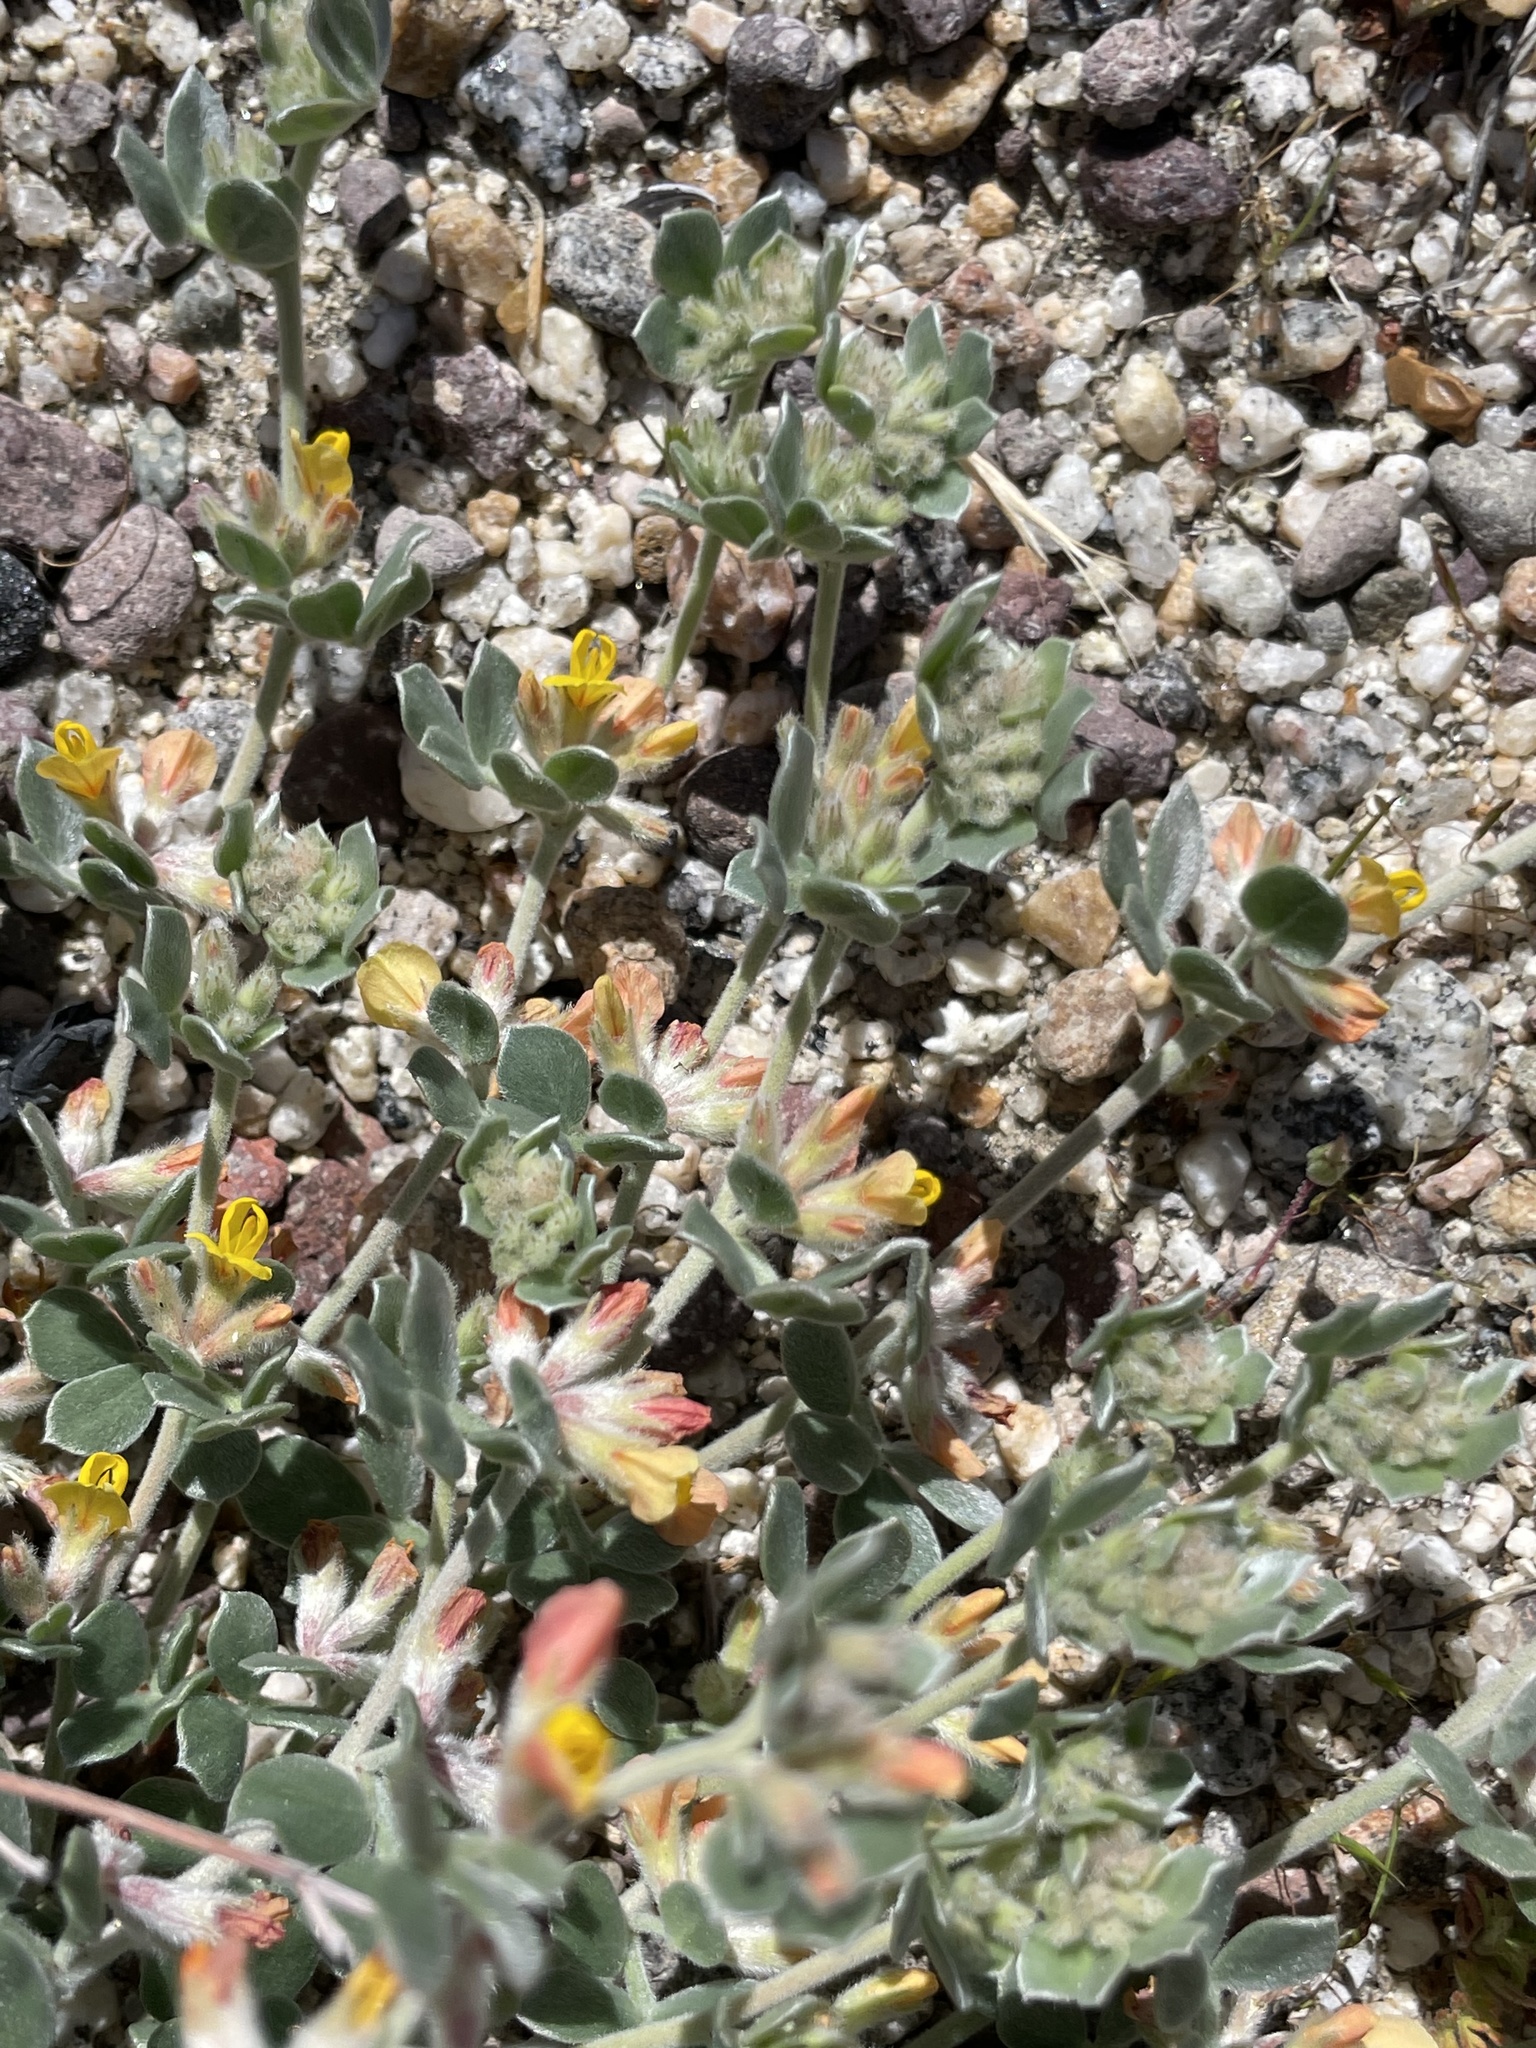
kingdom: Plantae
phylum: Tracheophyta
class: Magnoliopsida
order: Fabales
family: Fabaceae
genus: Acmispon
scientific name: Acmispon argophyllus
